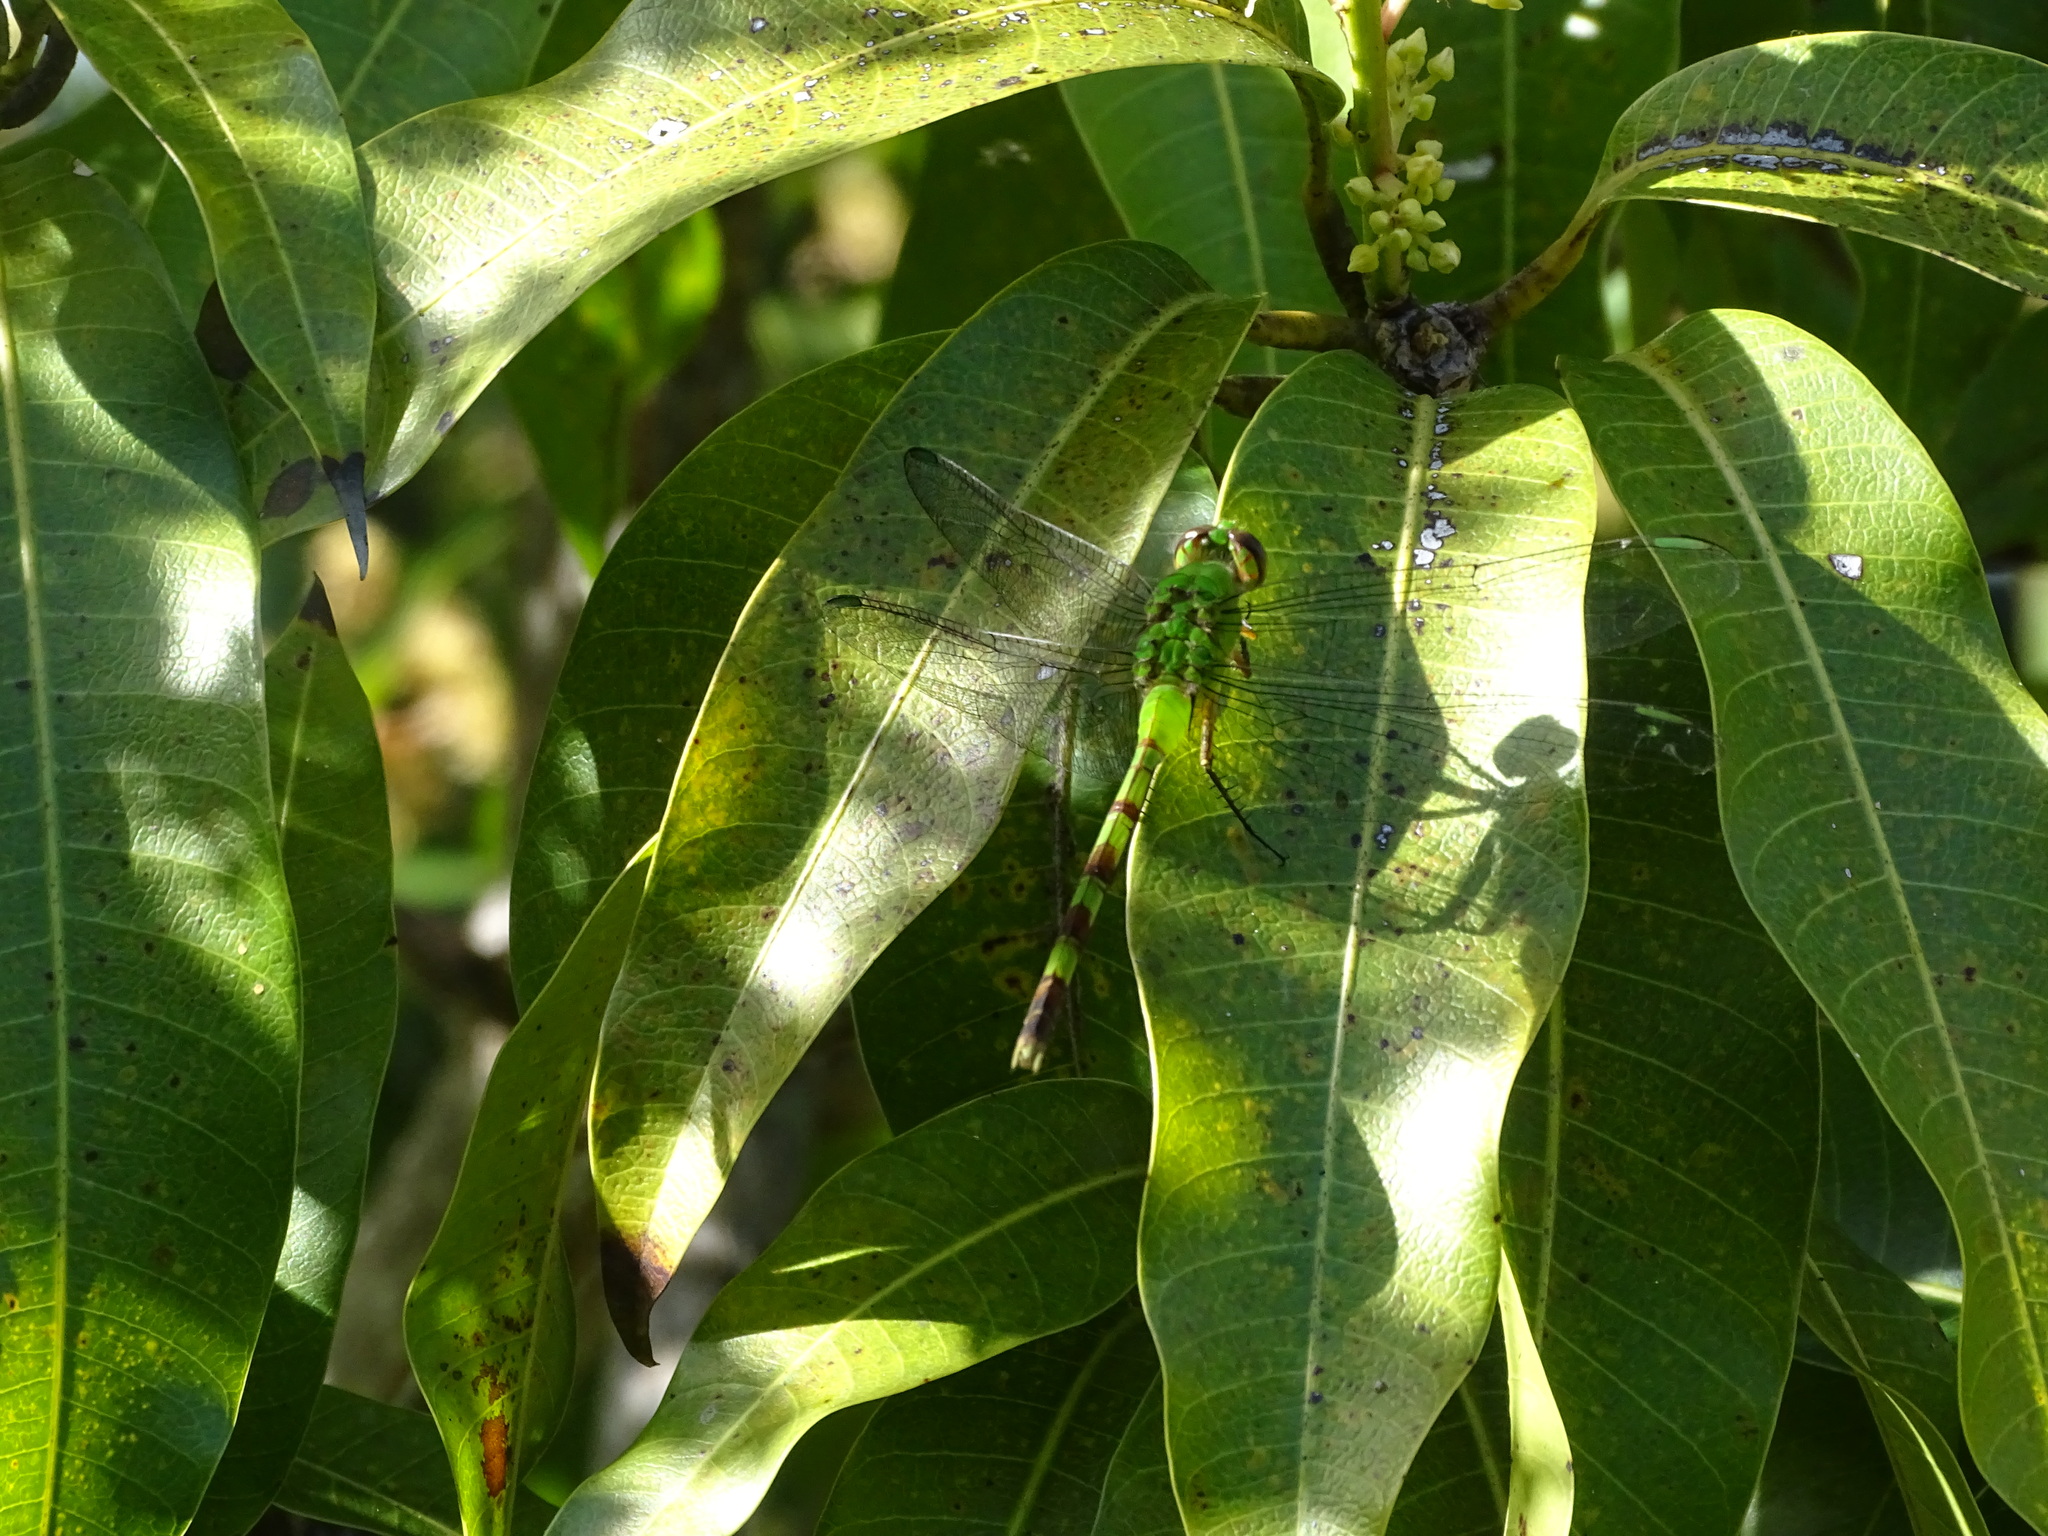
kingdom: Animalia
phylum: Arthropoda
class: Insecta
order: Odonata
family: Libellulidae
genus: Erythemis
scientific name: Erythemis vesiculosa
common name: Great pondhawk
